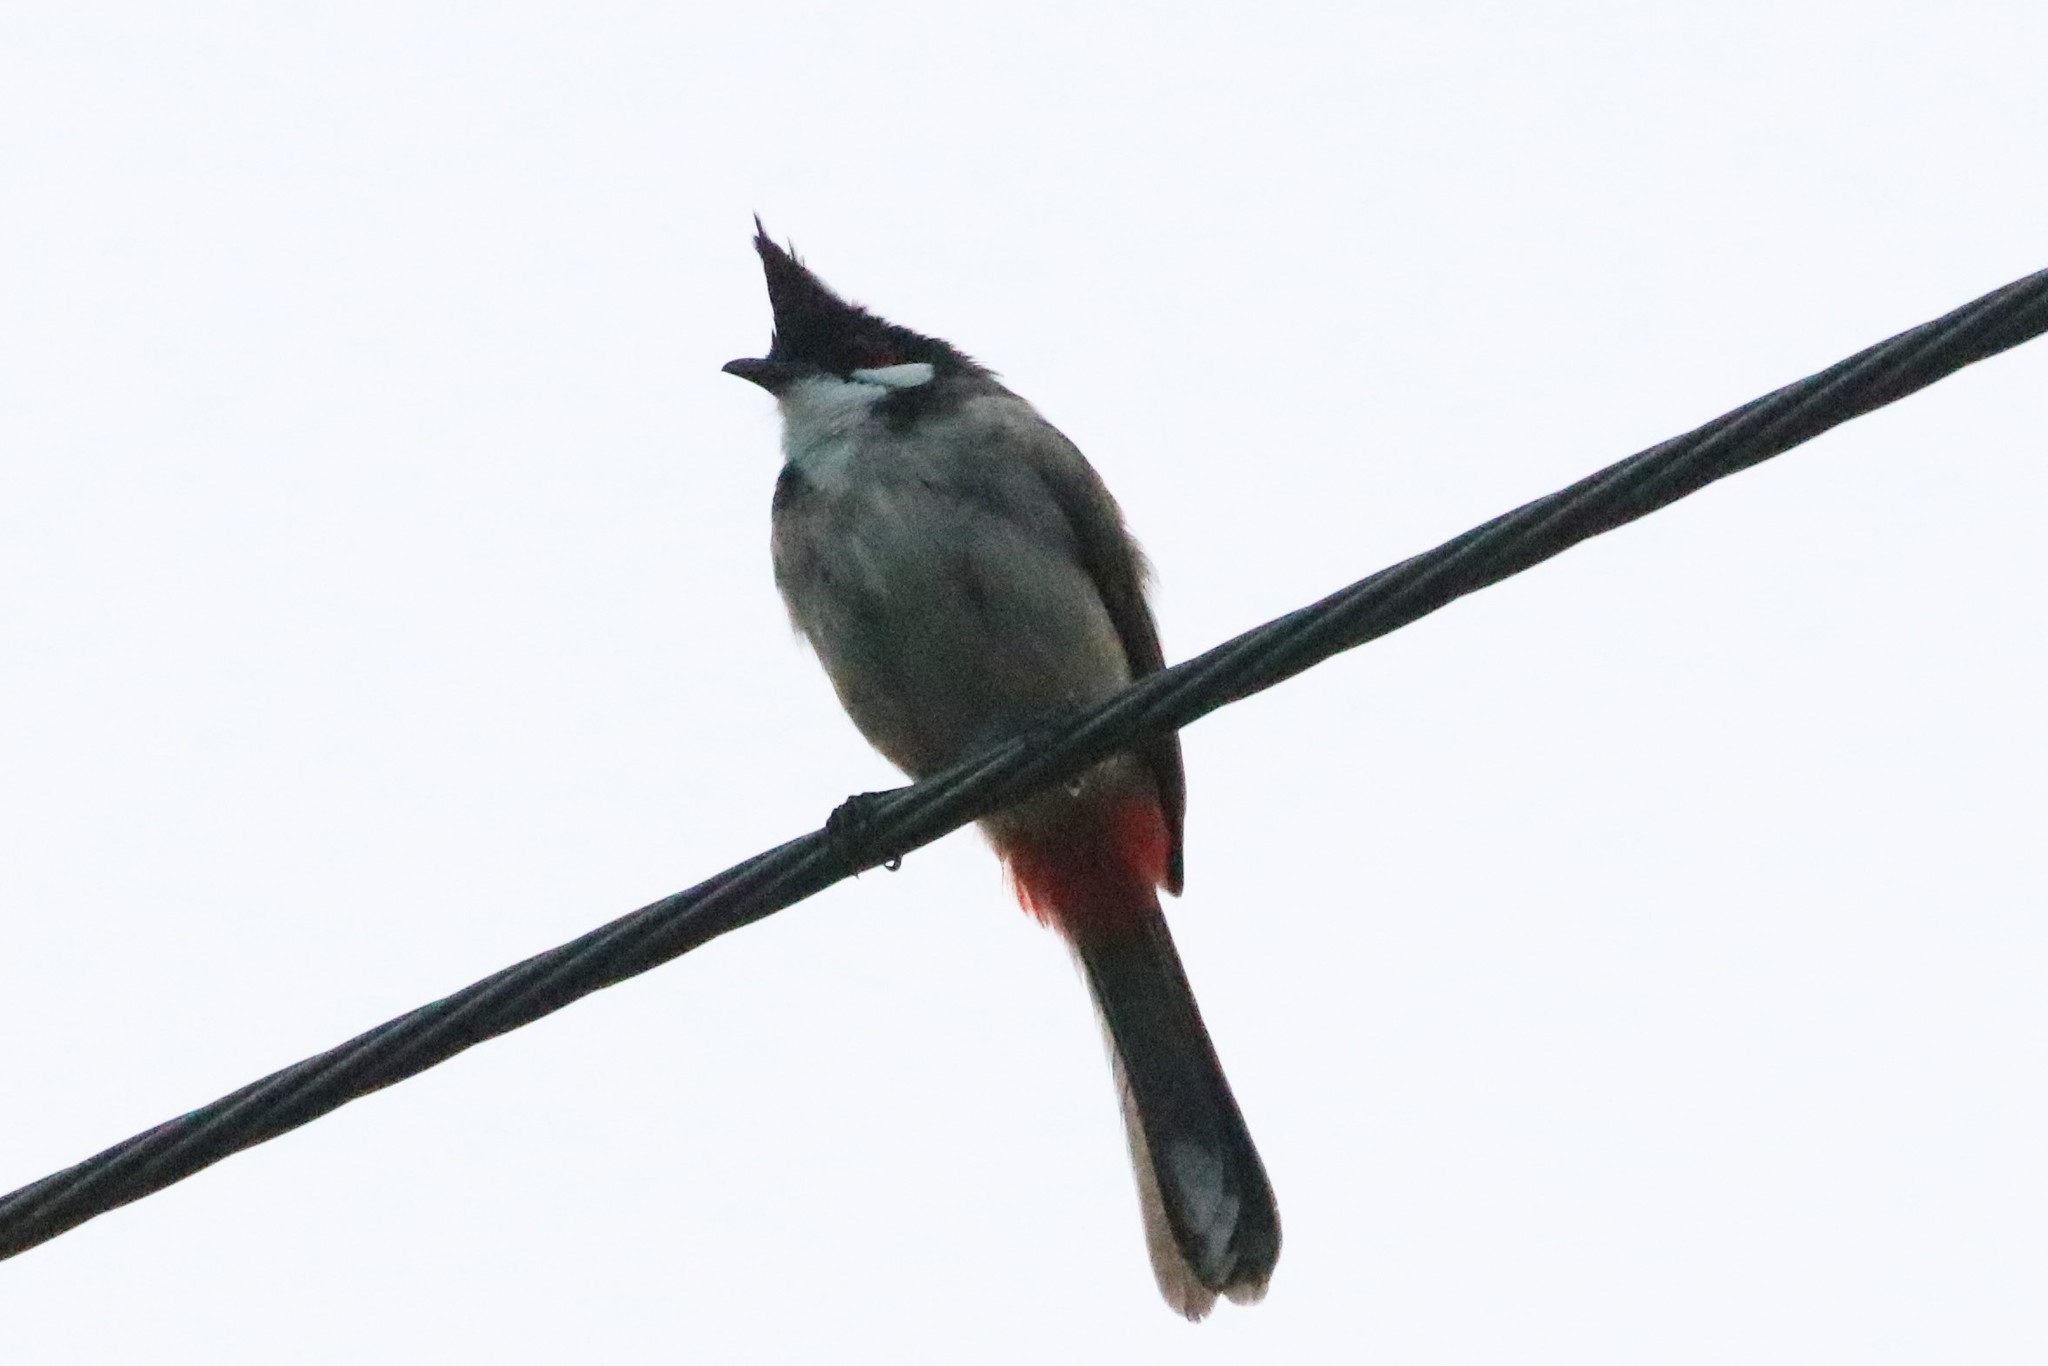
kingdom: Animalia
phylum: Chordata
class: Aves
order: Passeriformes
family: Pycnonotidae
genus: Pycnonotus
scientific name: Pycnonotus jocosus
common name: Red-whiskered bulbul
